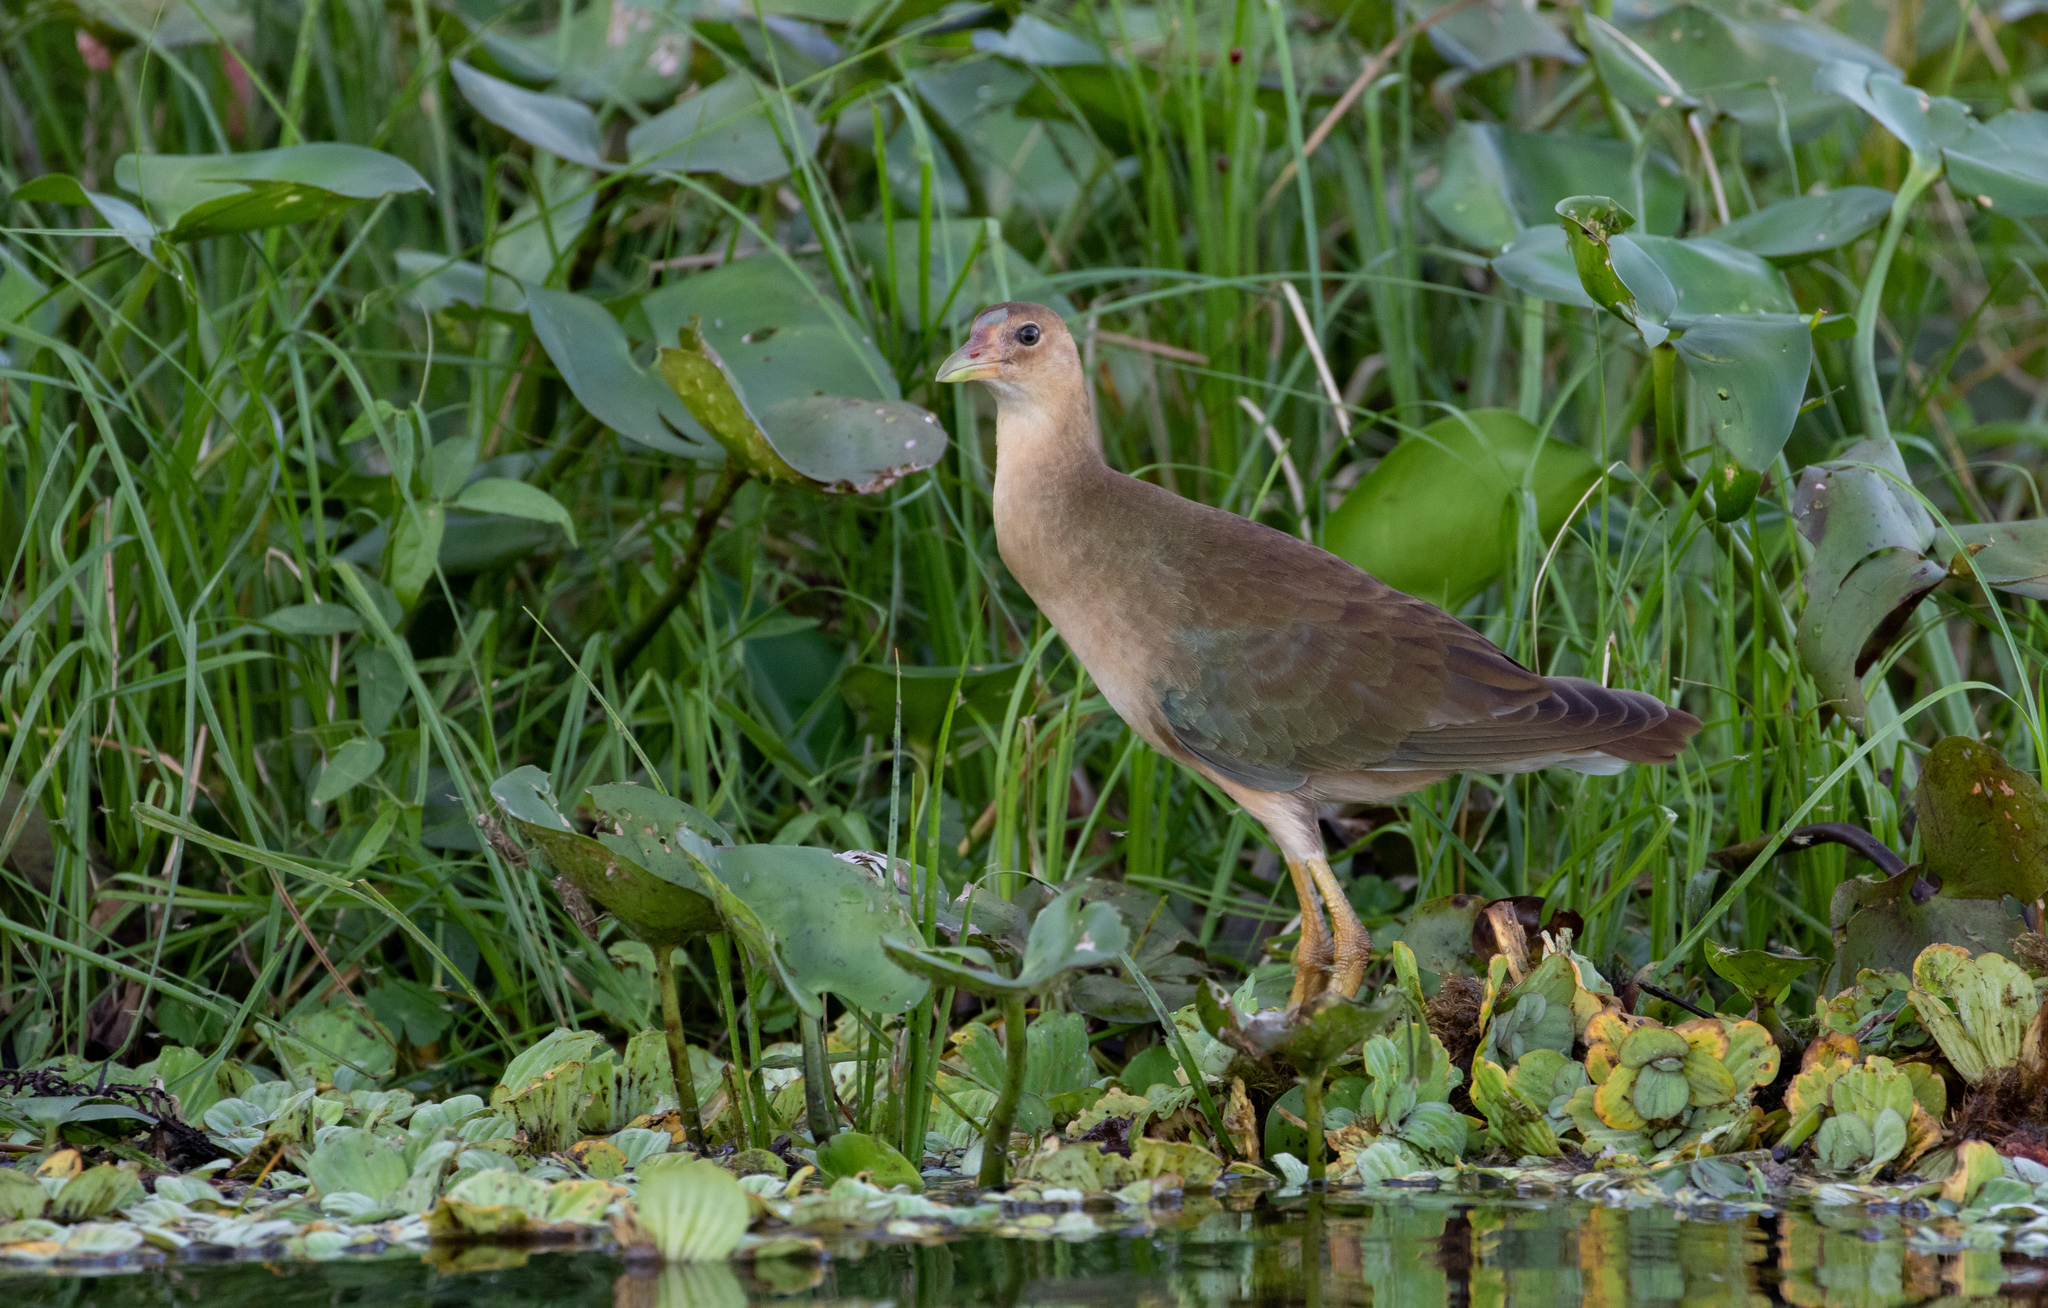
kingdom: Animalia
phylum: Chordata
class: Aves
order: Gruiformes
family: Rallidae
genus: Porphyrio
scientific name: Porphyrio martinica
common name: Purple gallinule
